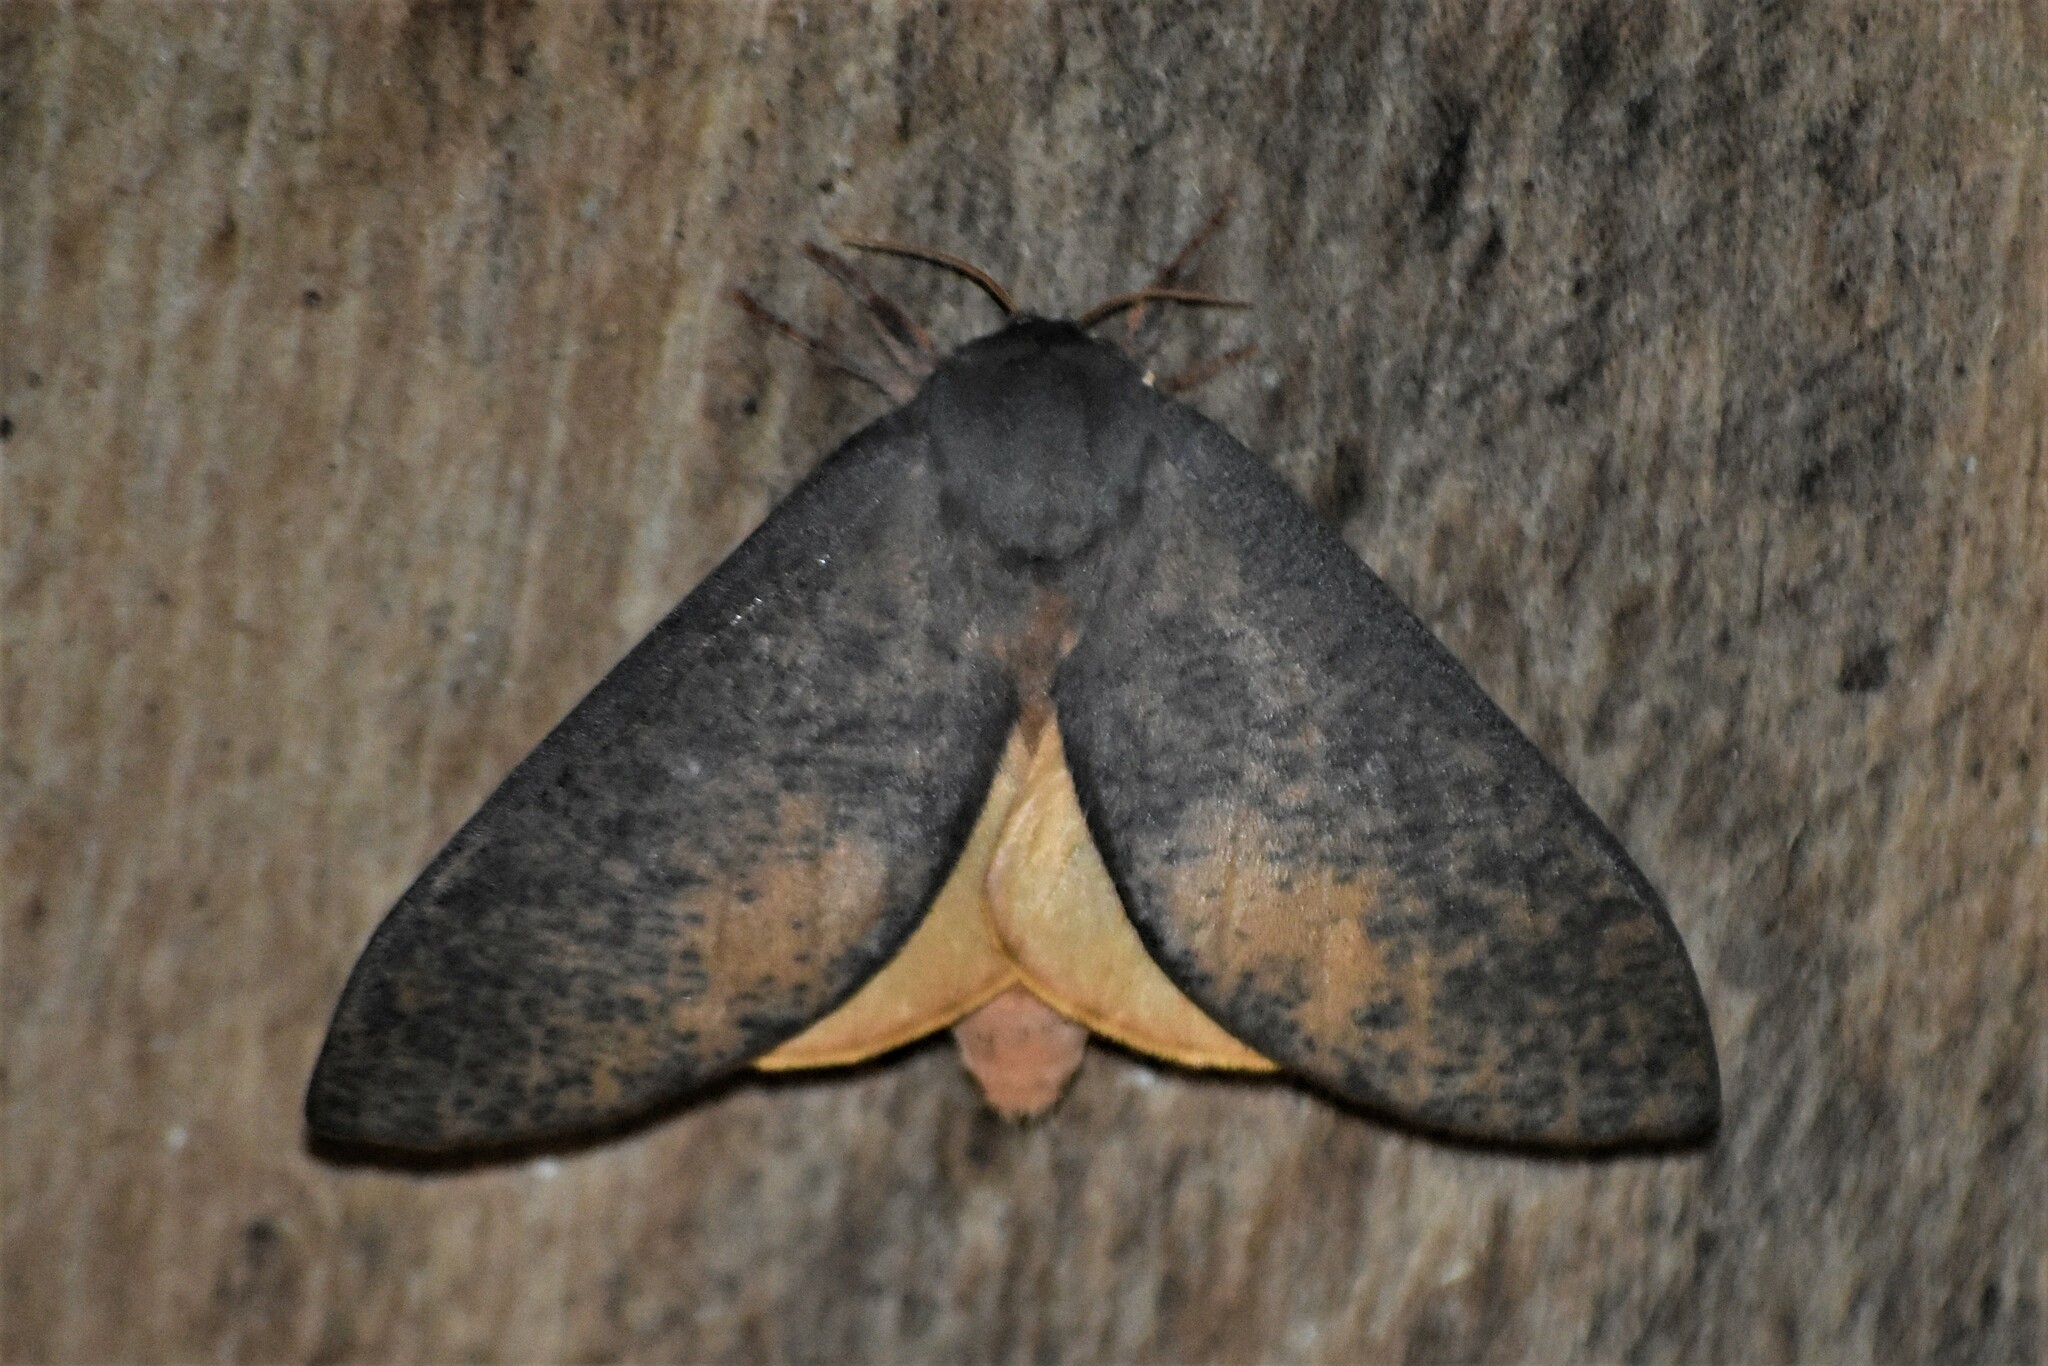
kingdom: Animalia
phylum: Arthropoda
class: Insecta
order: Lepidoptera
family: Saturniidae
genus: Almeidella
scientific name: Almeidella corrupta
